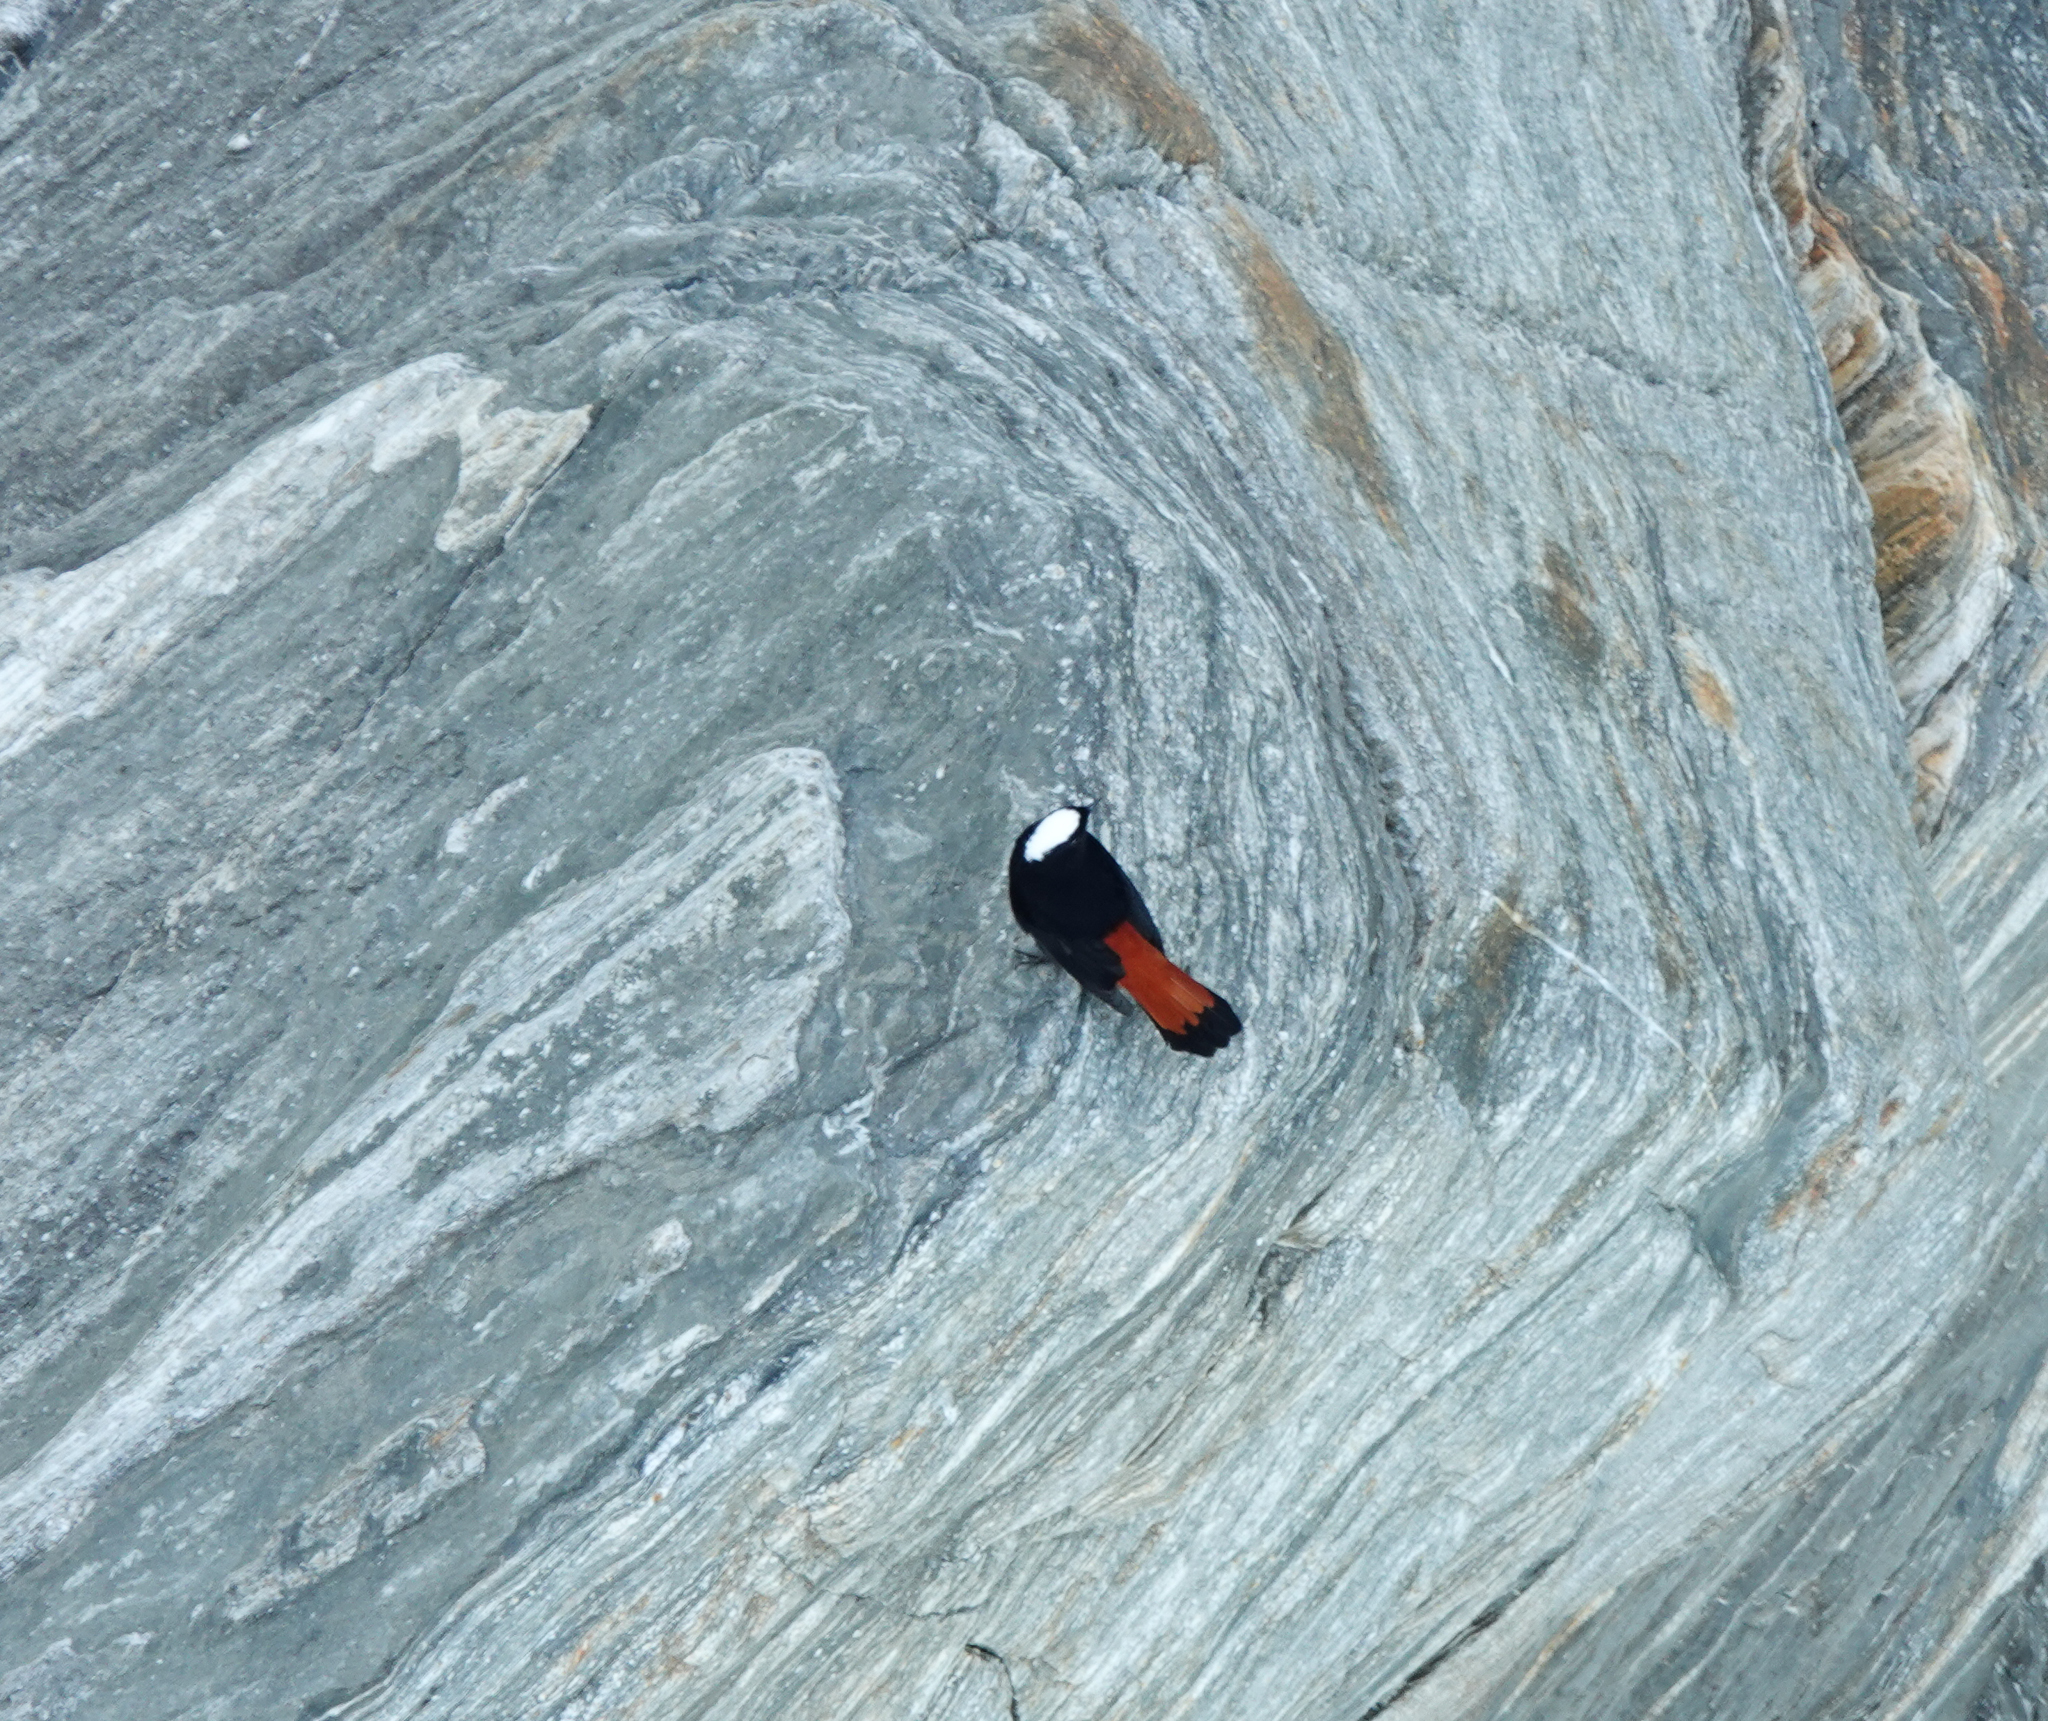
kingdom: Animalia
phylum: Chordata
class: Aves
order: Passeriformes
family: Muscicapidae
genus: Chaimarrornis
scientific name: Chaimarrornis leucocephalus
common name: White-capped redstart
